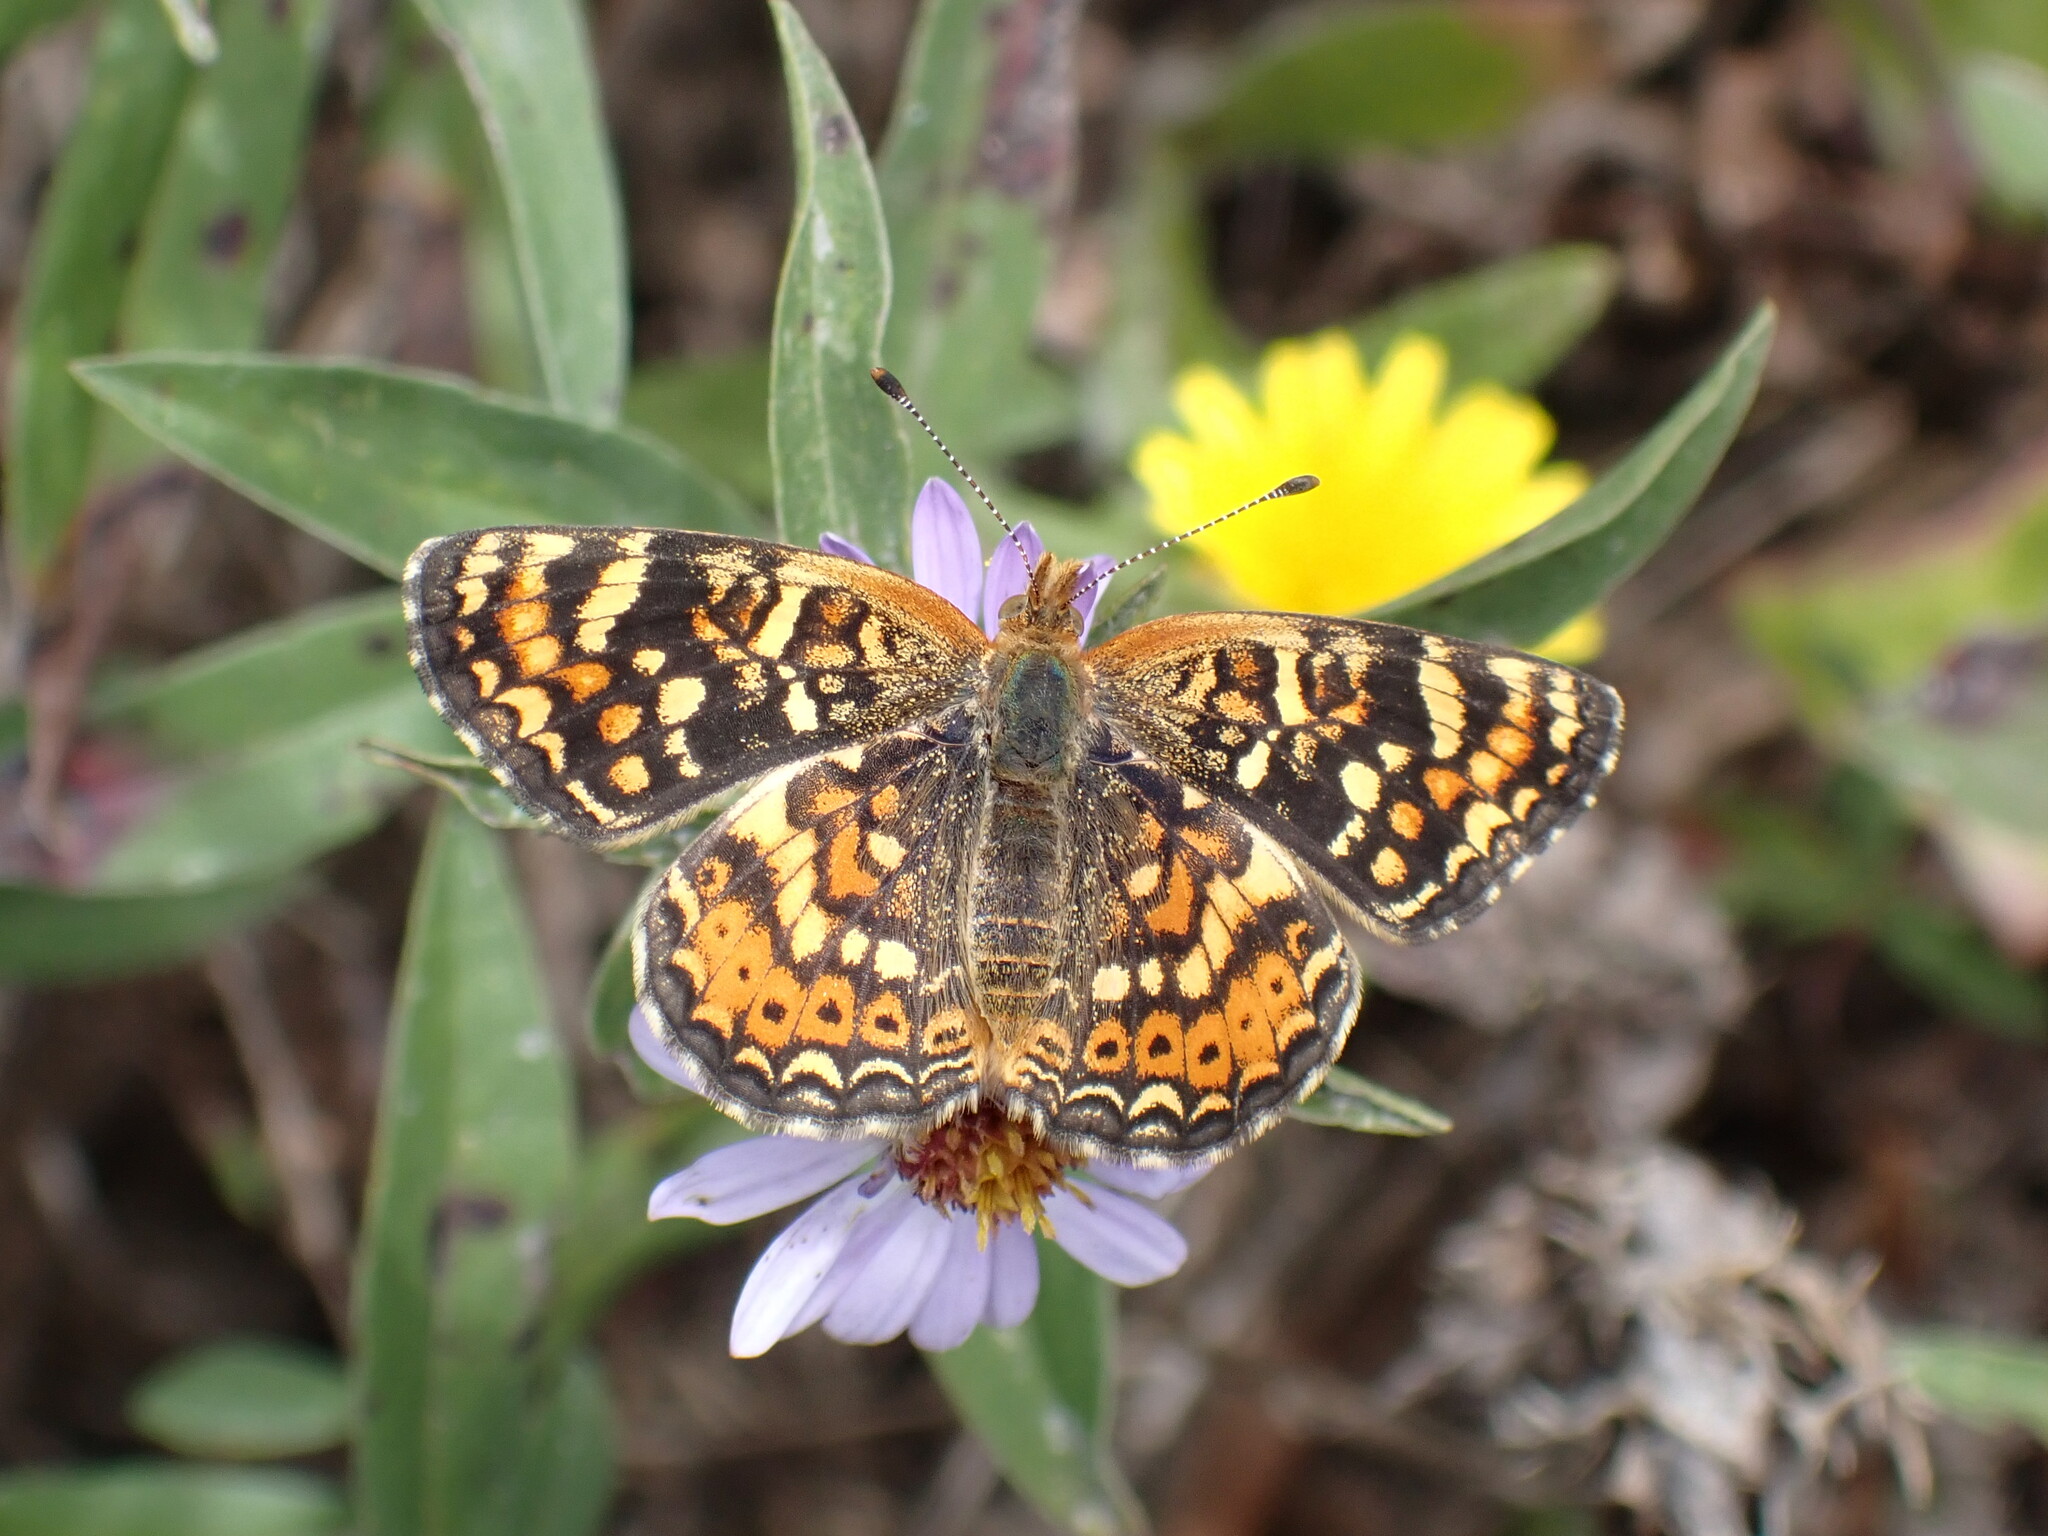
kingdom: Animalia
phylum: Arthropoda
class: Insecta
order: Lepidoptera
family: Nymphalidae
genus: Phyciodes
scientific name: Phyciodes tharos
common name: Pearl crescent
